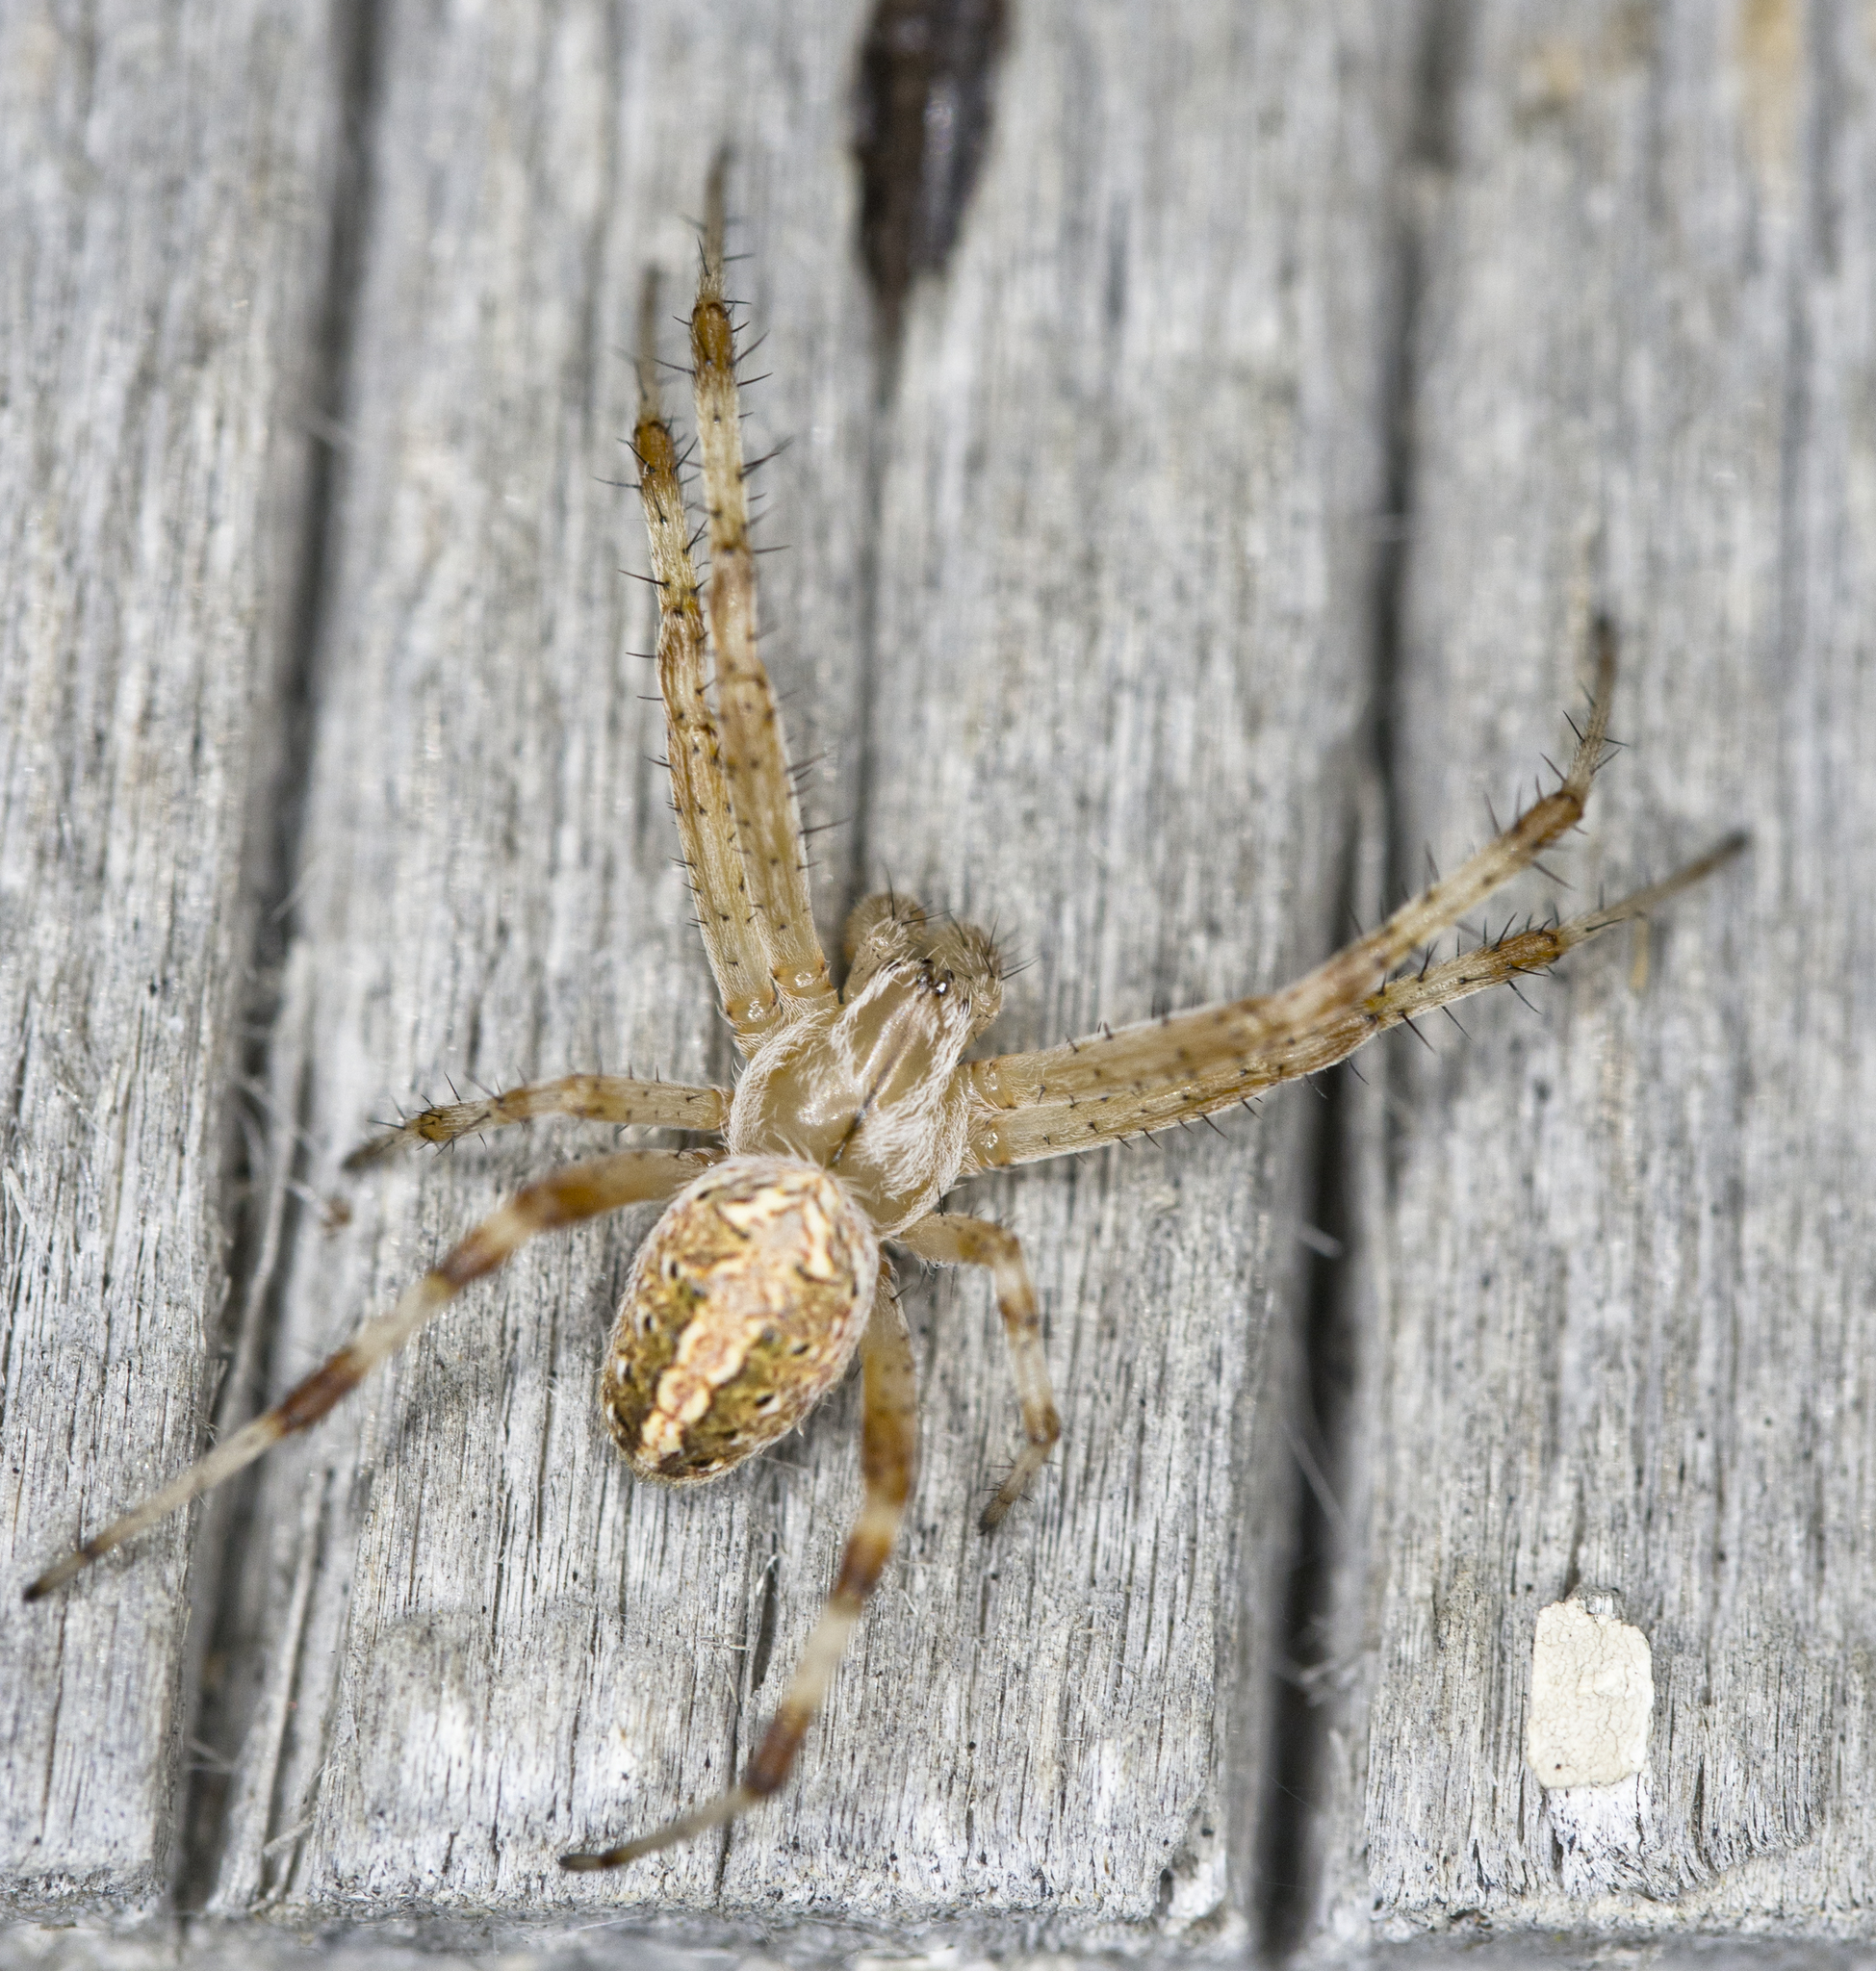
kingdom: Animalia
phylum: Arthropoda
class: Arachnida
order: Araneae
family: Araneidae
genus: Neoscona
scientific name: Neoscona oaxacensis
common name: Orb weavers
